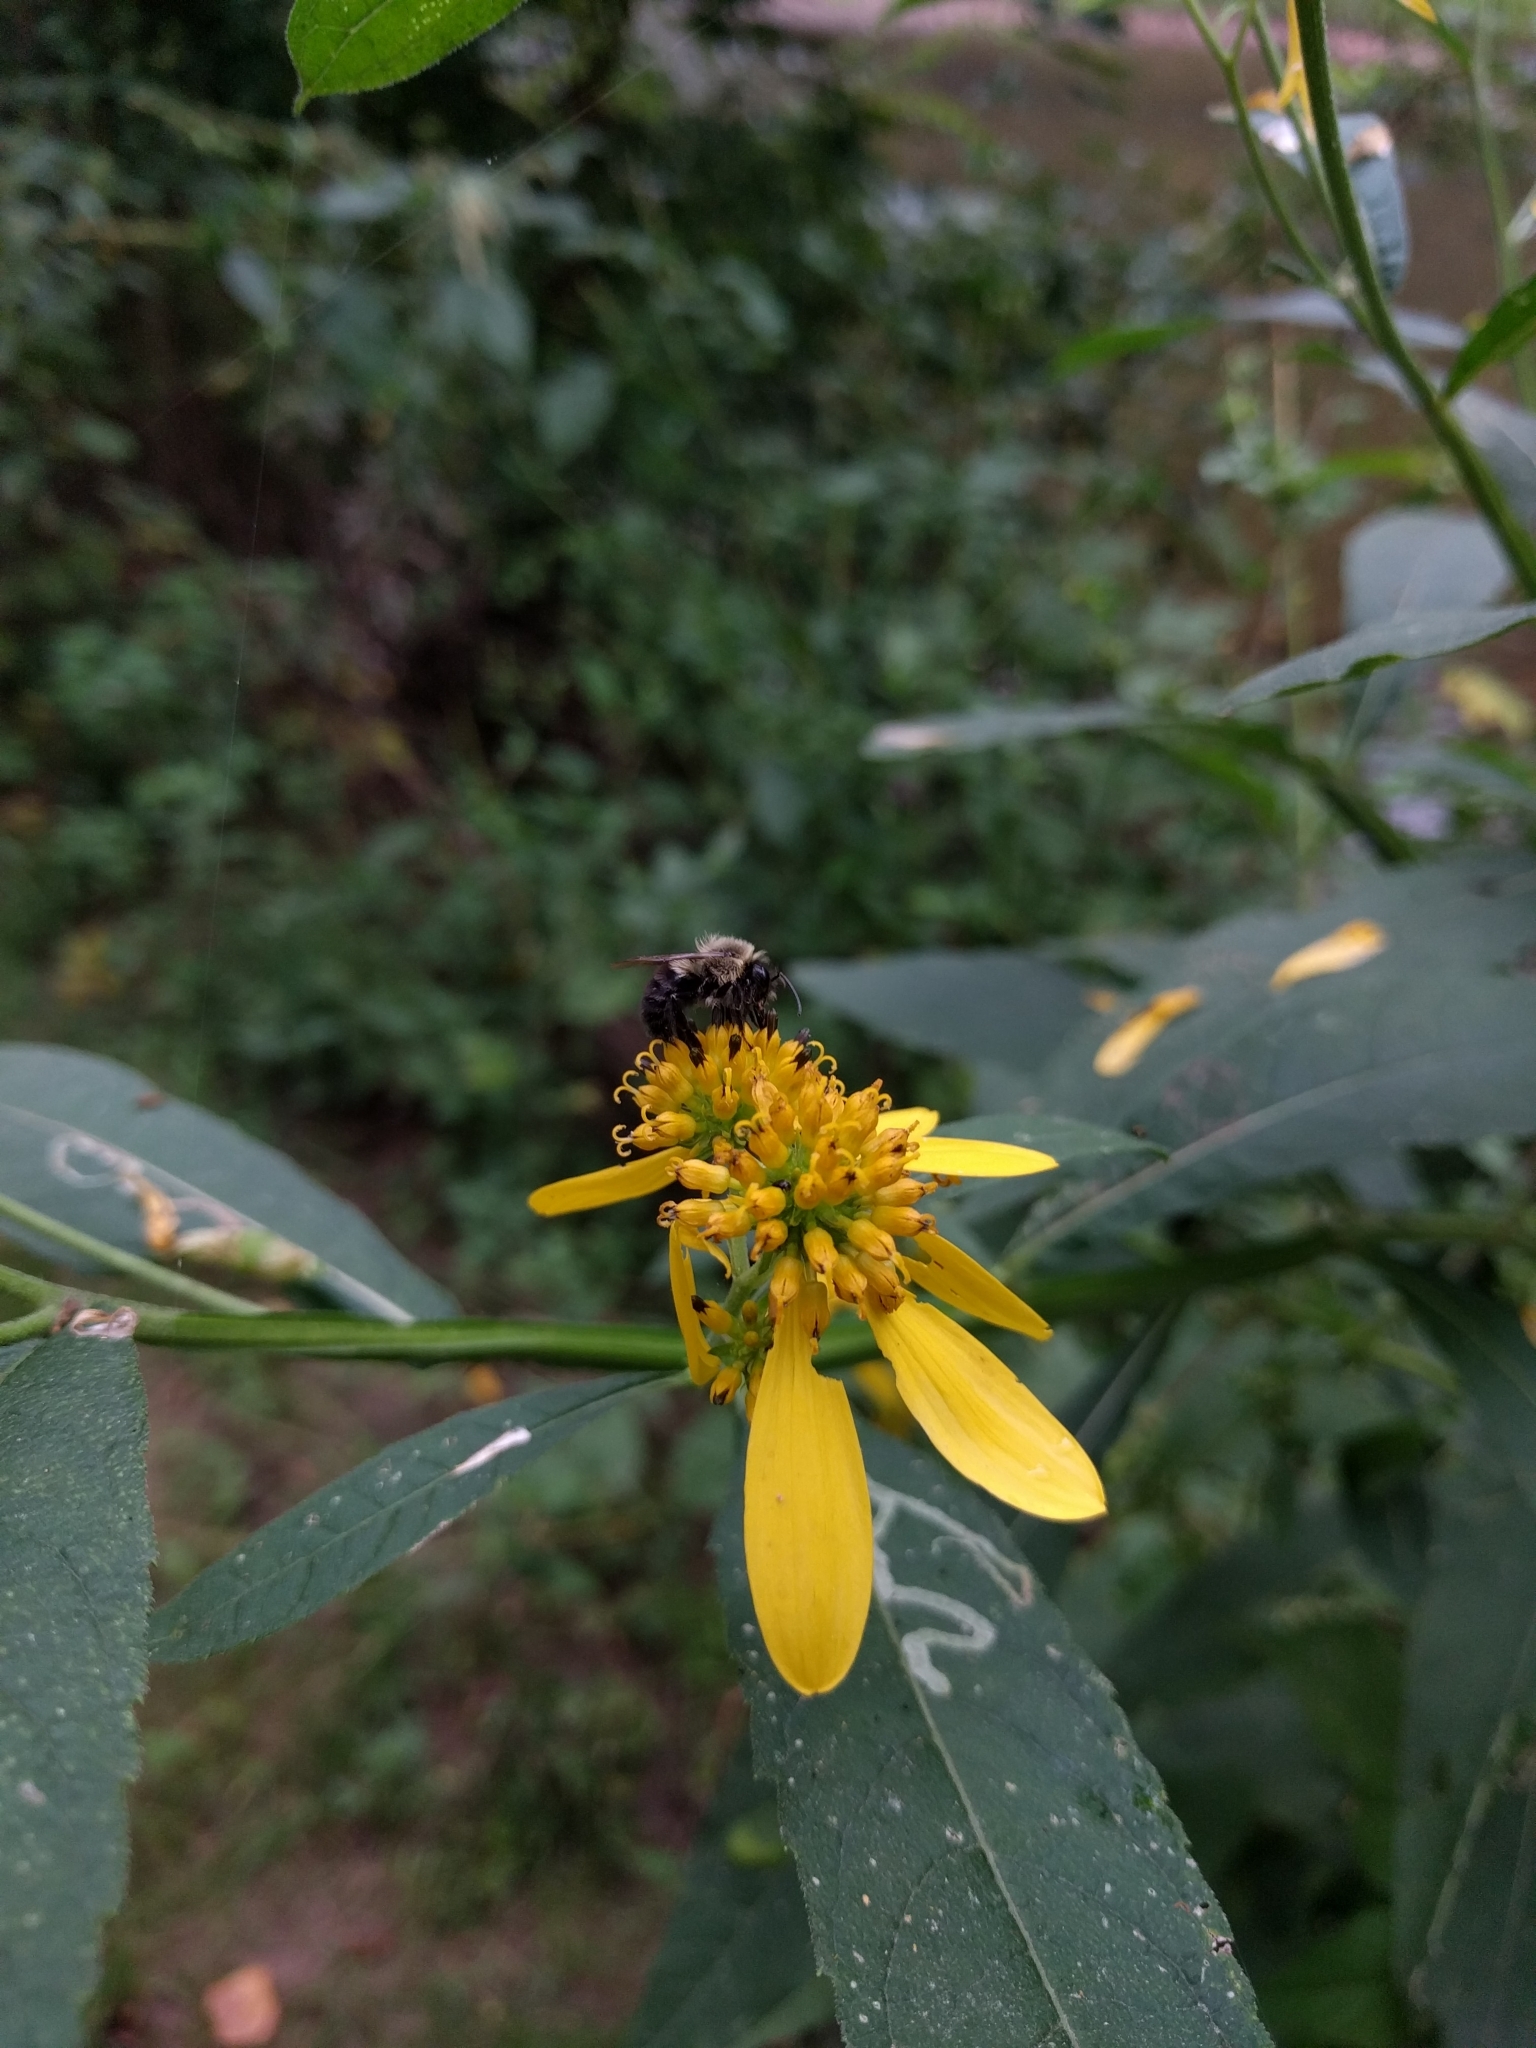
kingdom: Plantae
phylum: Tracheophyta
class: Magnoliopsida
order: Asterales
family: Asteraceae
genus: Verbesina
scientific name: Verbesina alternifolia
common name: Wingstem
